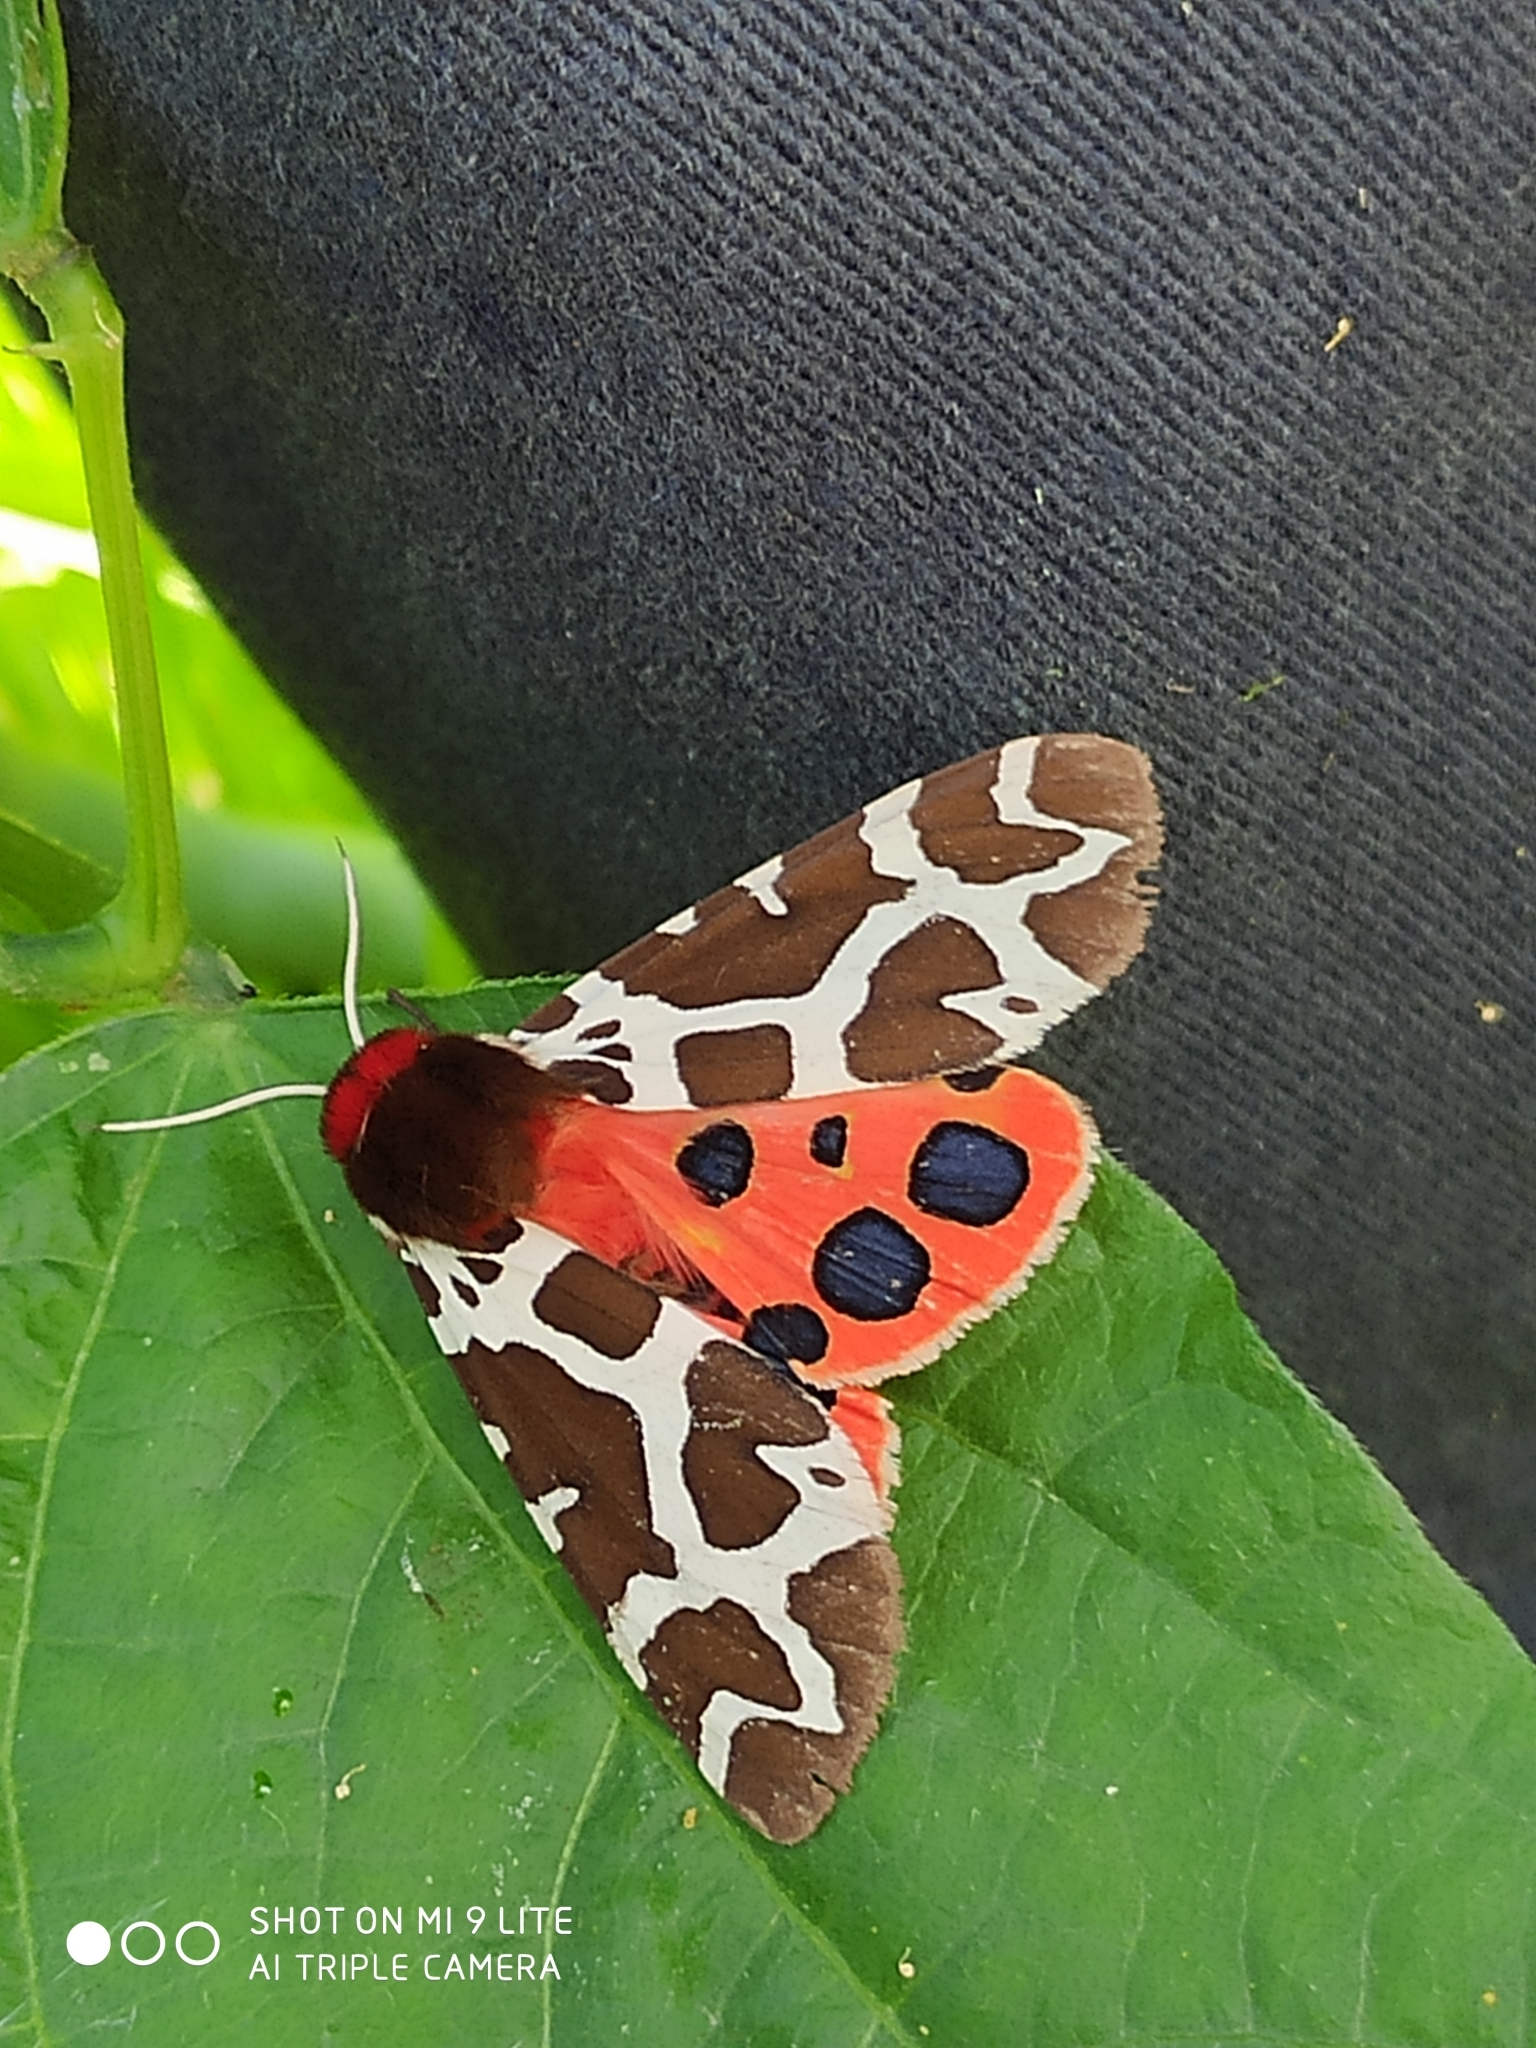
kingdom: Animalia
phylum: Arthropoda
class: Insecta
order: Lepidoptera
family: Erebidae
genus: Arctia
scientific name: Arctia caja
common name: Garden tiger
